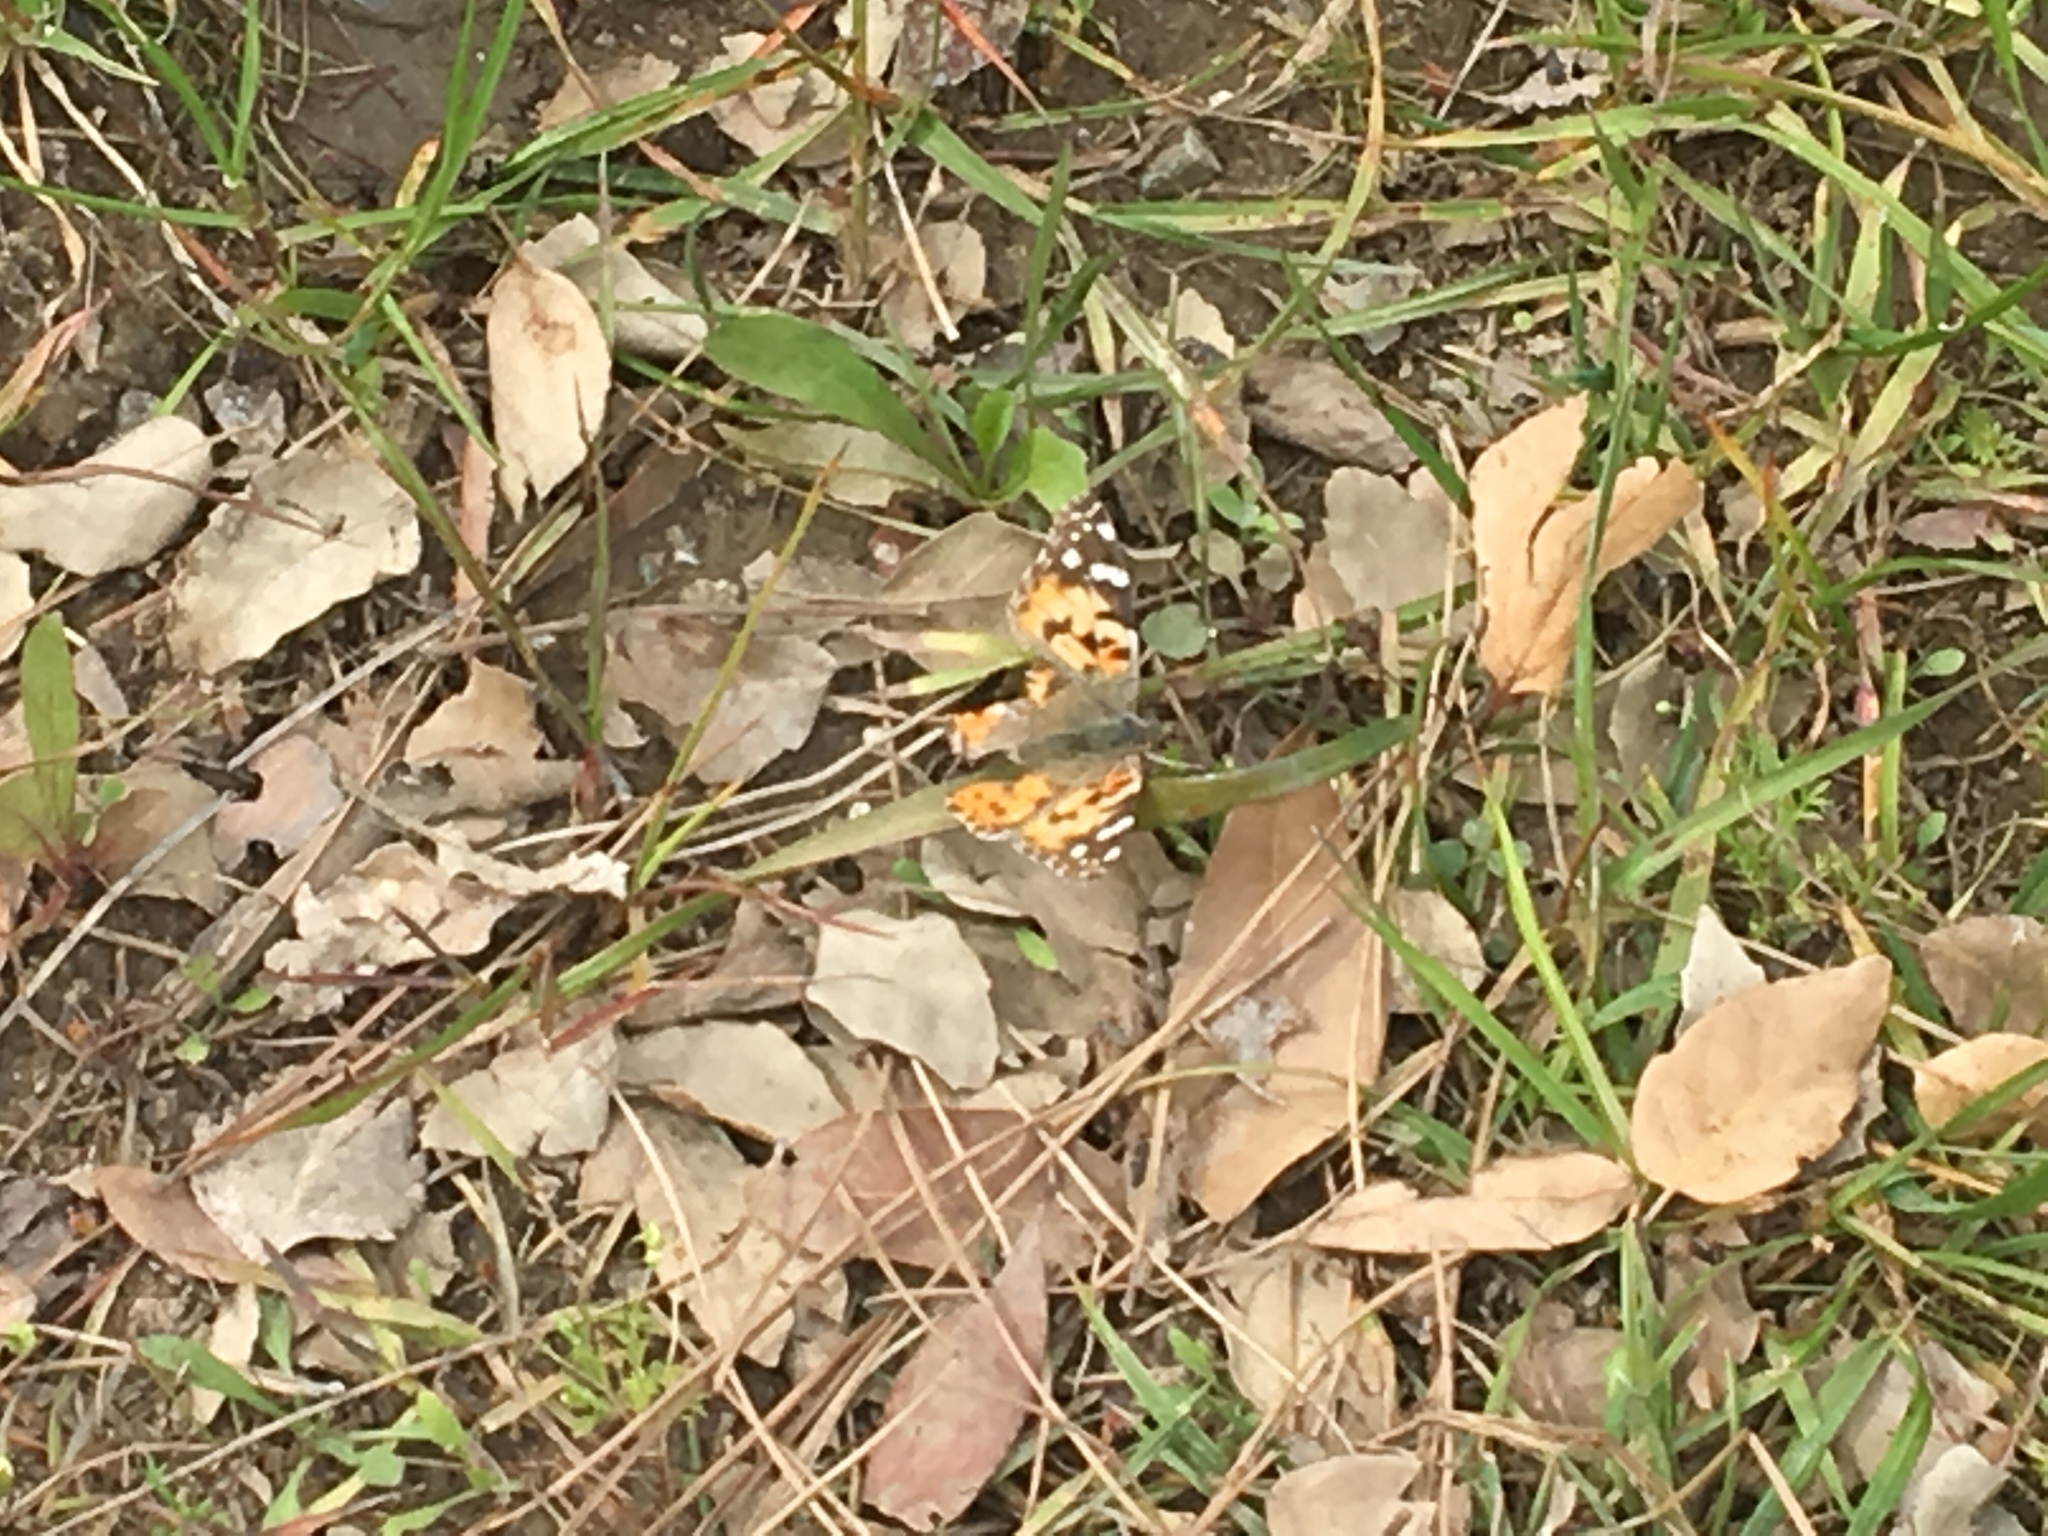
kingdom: Animalia
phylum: Arthropoda
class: Insecta
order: Lepidoptera
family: Nymphalidae
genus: Vanessa
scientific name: Vanessa cardui
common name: Painted lady
